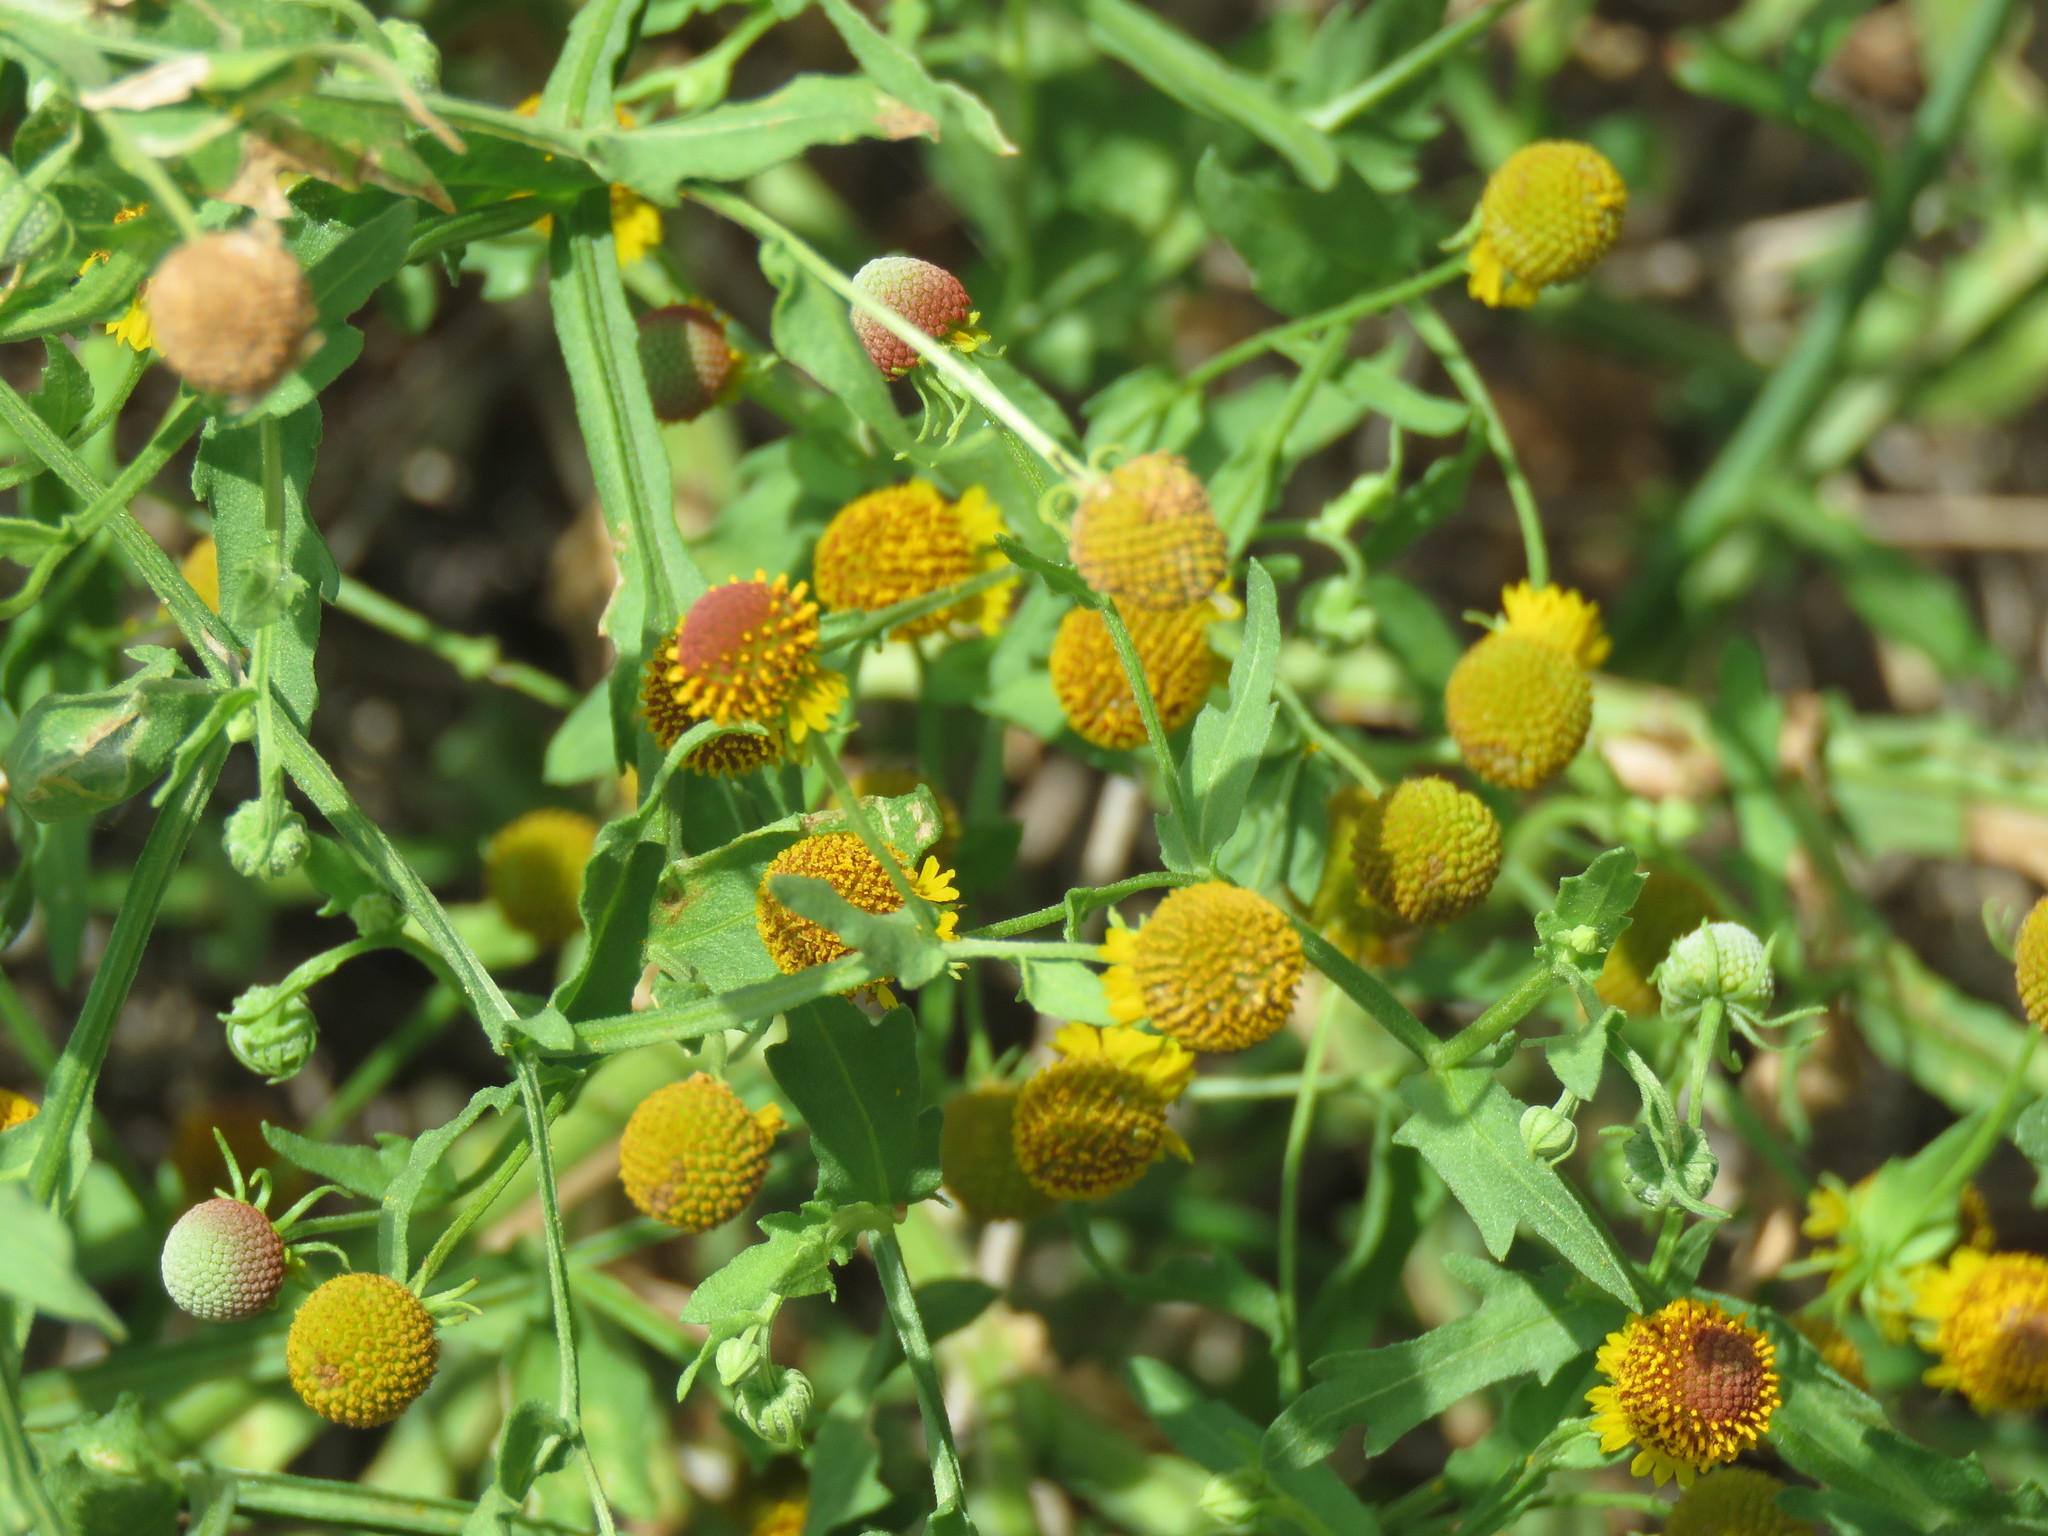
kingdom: Plantae
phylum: Tracheophyta
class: Magnoliopsida
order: Asterales
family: Asteraceae
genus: Helenium
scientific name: Helenium microcephalum
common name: Smallhead sneezeweed
